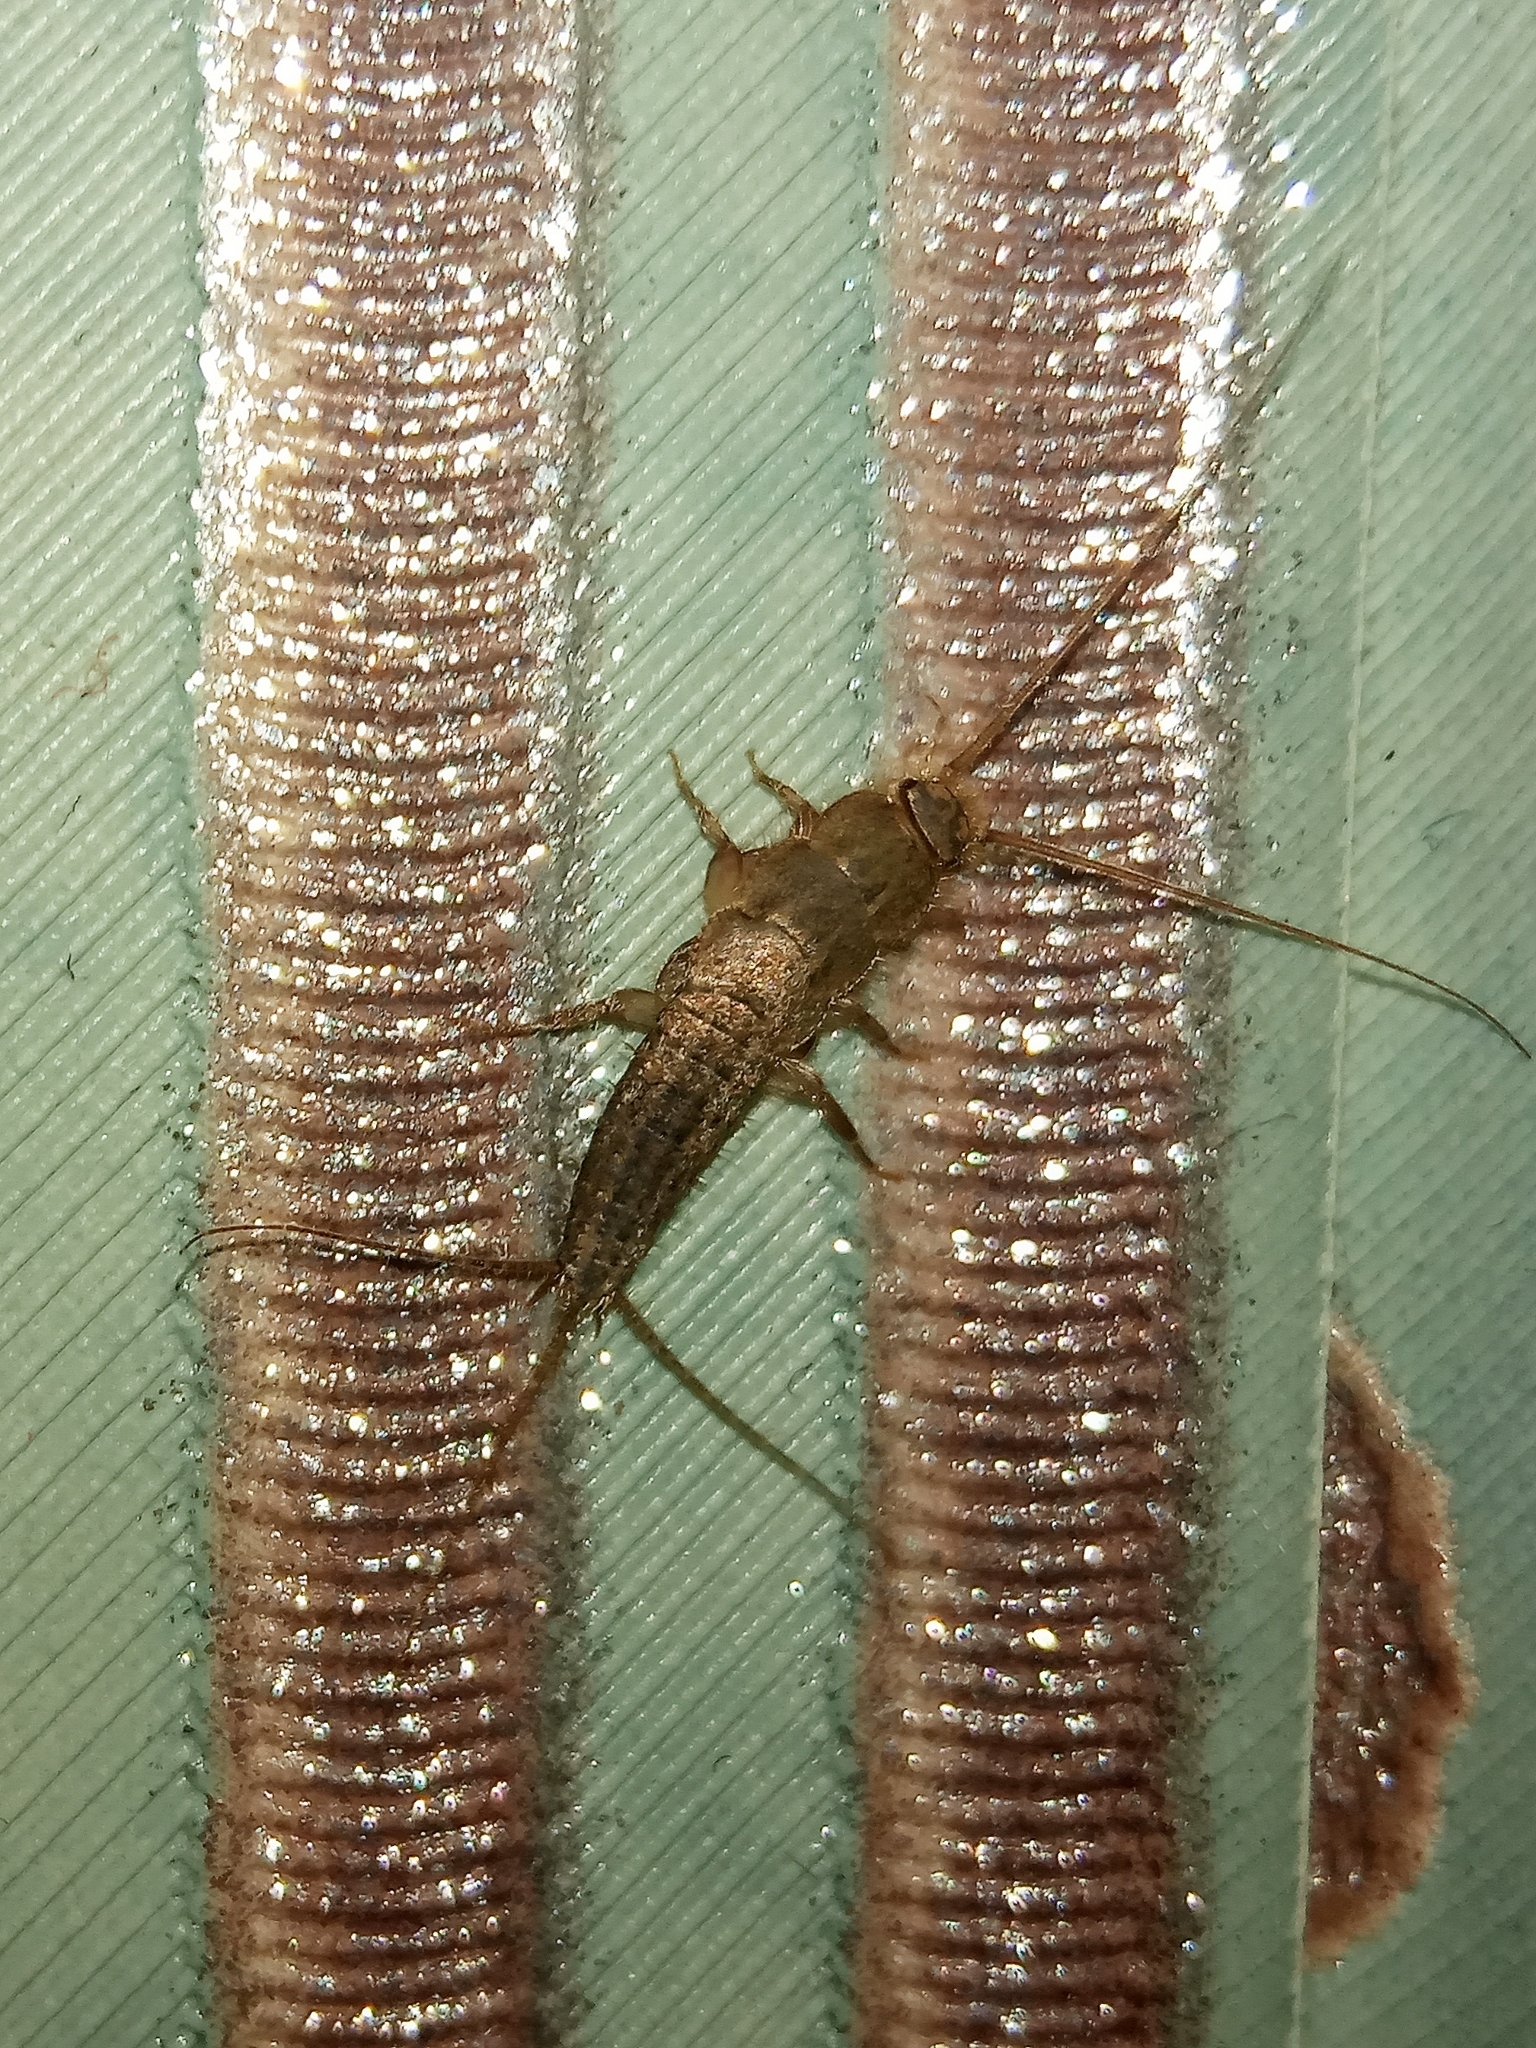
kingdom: Animalia
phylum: Arthropoda
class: Insecta
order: Zygentoma
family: Lepismatidae
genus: Ctenolepisma
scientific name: Ctenolepisma
